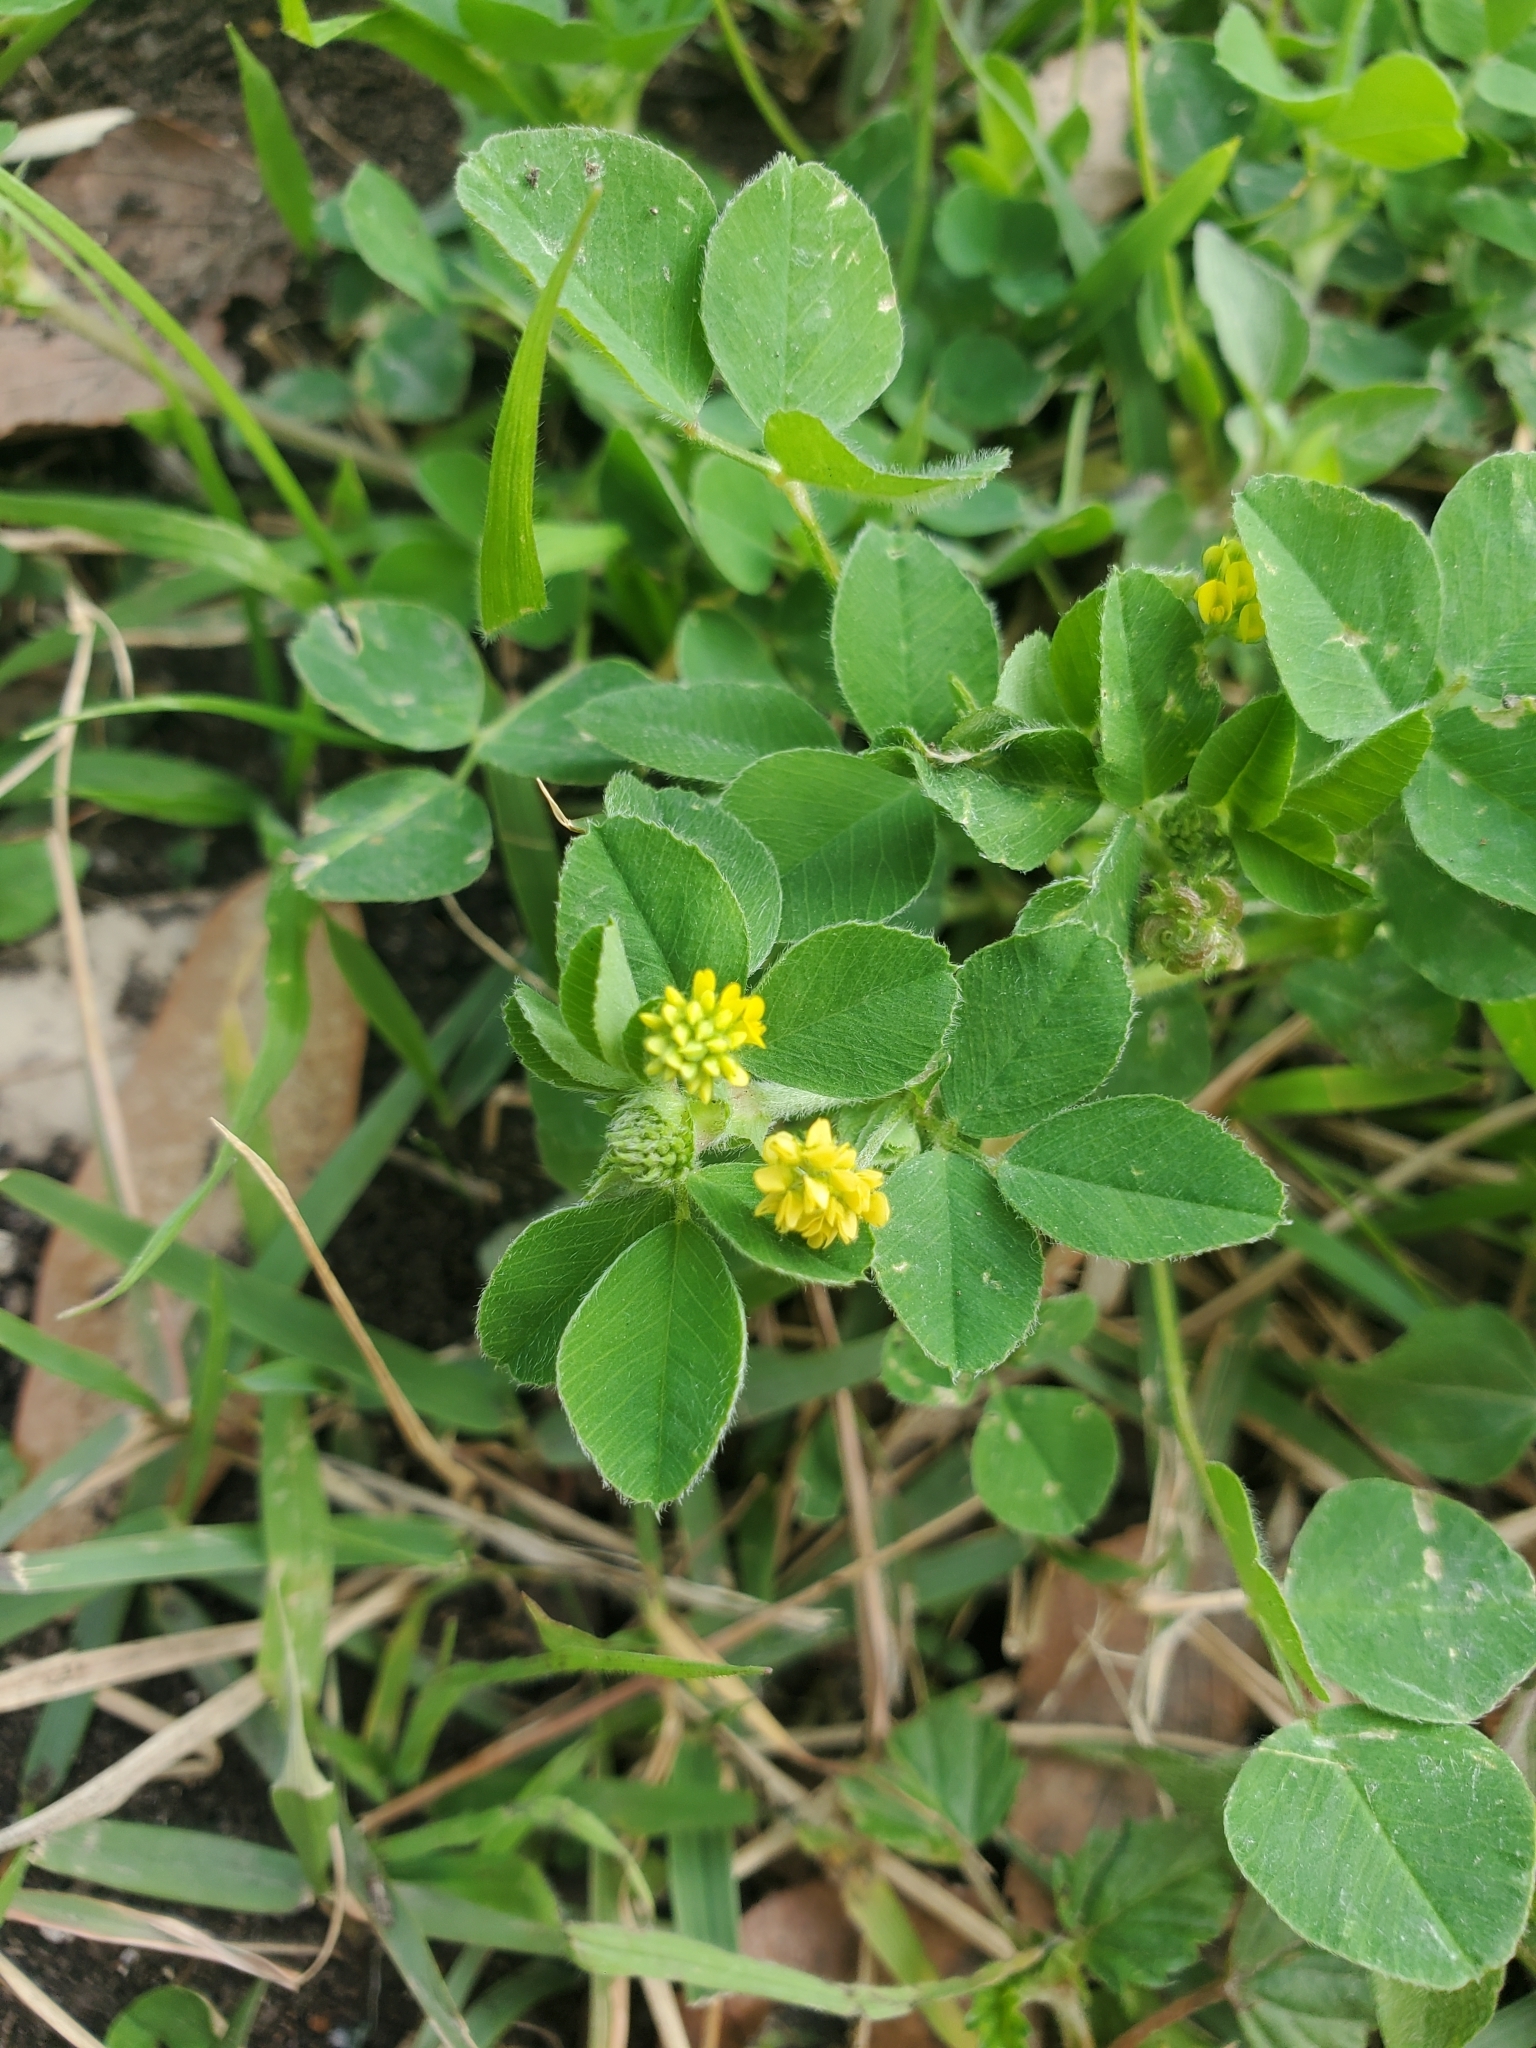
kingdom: Plantae
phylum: Tracheophyta
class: Magnoliopsida
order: Fabales
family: Fabaceae
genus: Medicago
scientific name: Medicago lupulina
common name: Black medick
